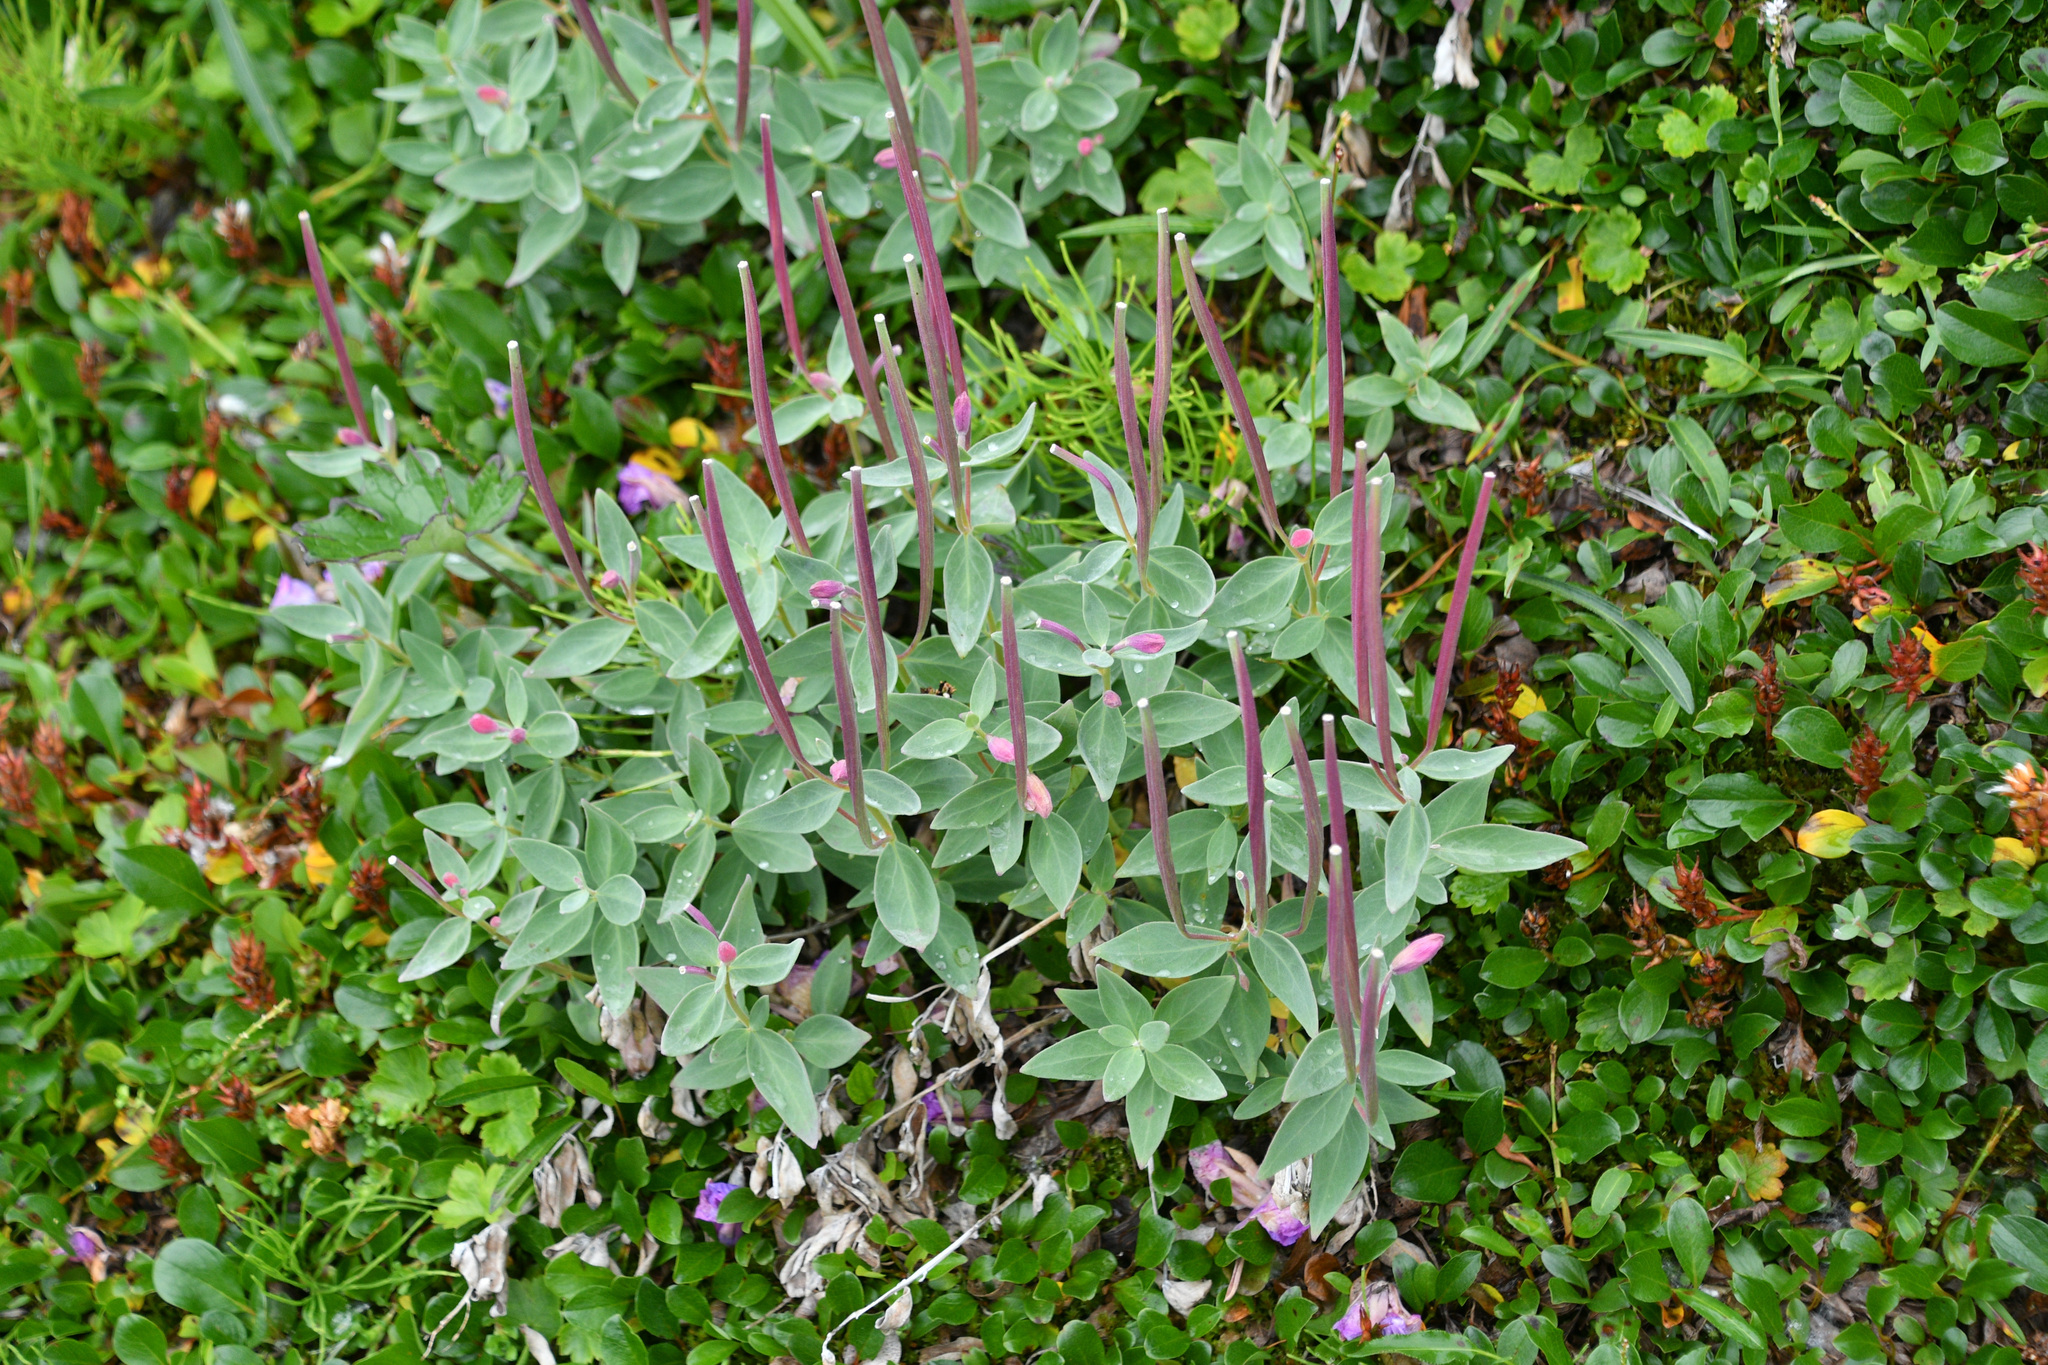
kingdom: Plantae
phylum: Tracheophyta
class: Magnoliopsida
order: Myrtales
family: Onagraceae
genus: Chamaenerion
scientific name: Chamaenerion latifolium
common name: Dwarf fireweed
